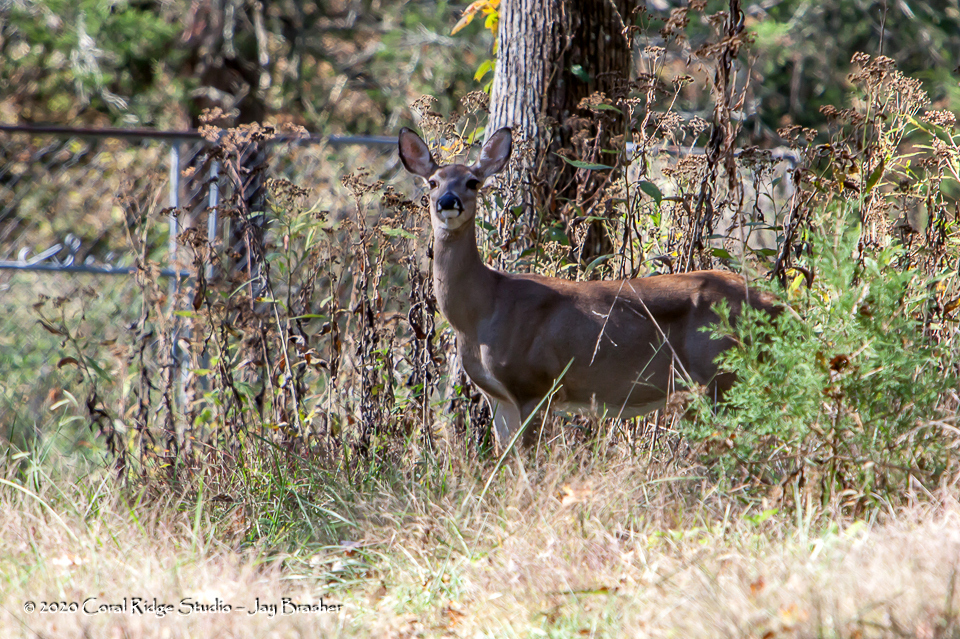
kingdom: Animalia
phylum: Chordata
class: Mammalia
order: Artiodactyla
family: Cervidae
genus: Odocoileus
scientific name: Odocoileus virginianus
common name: White-tailed deer
